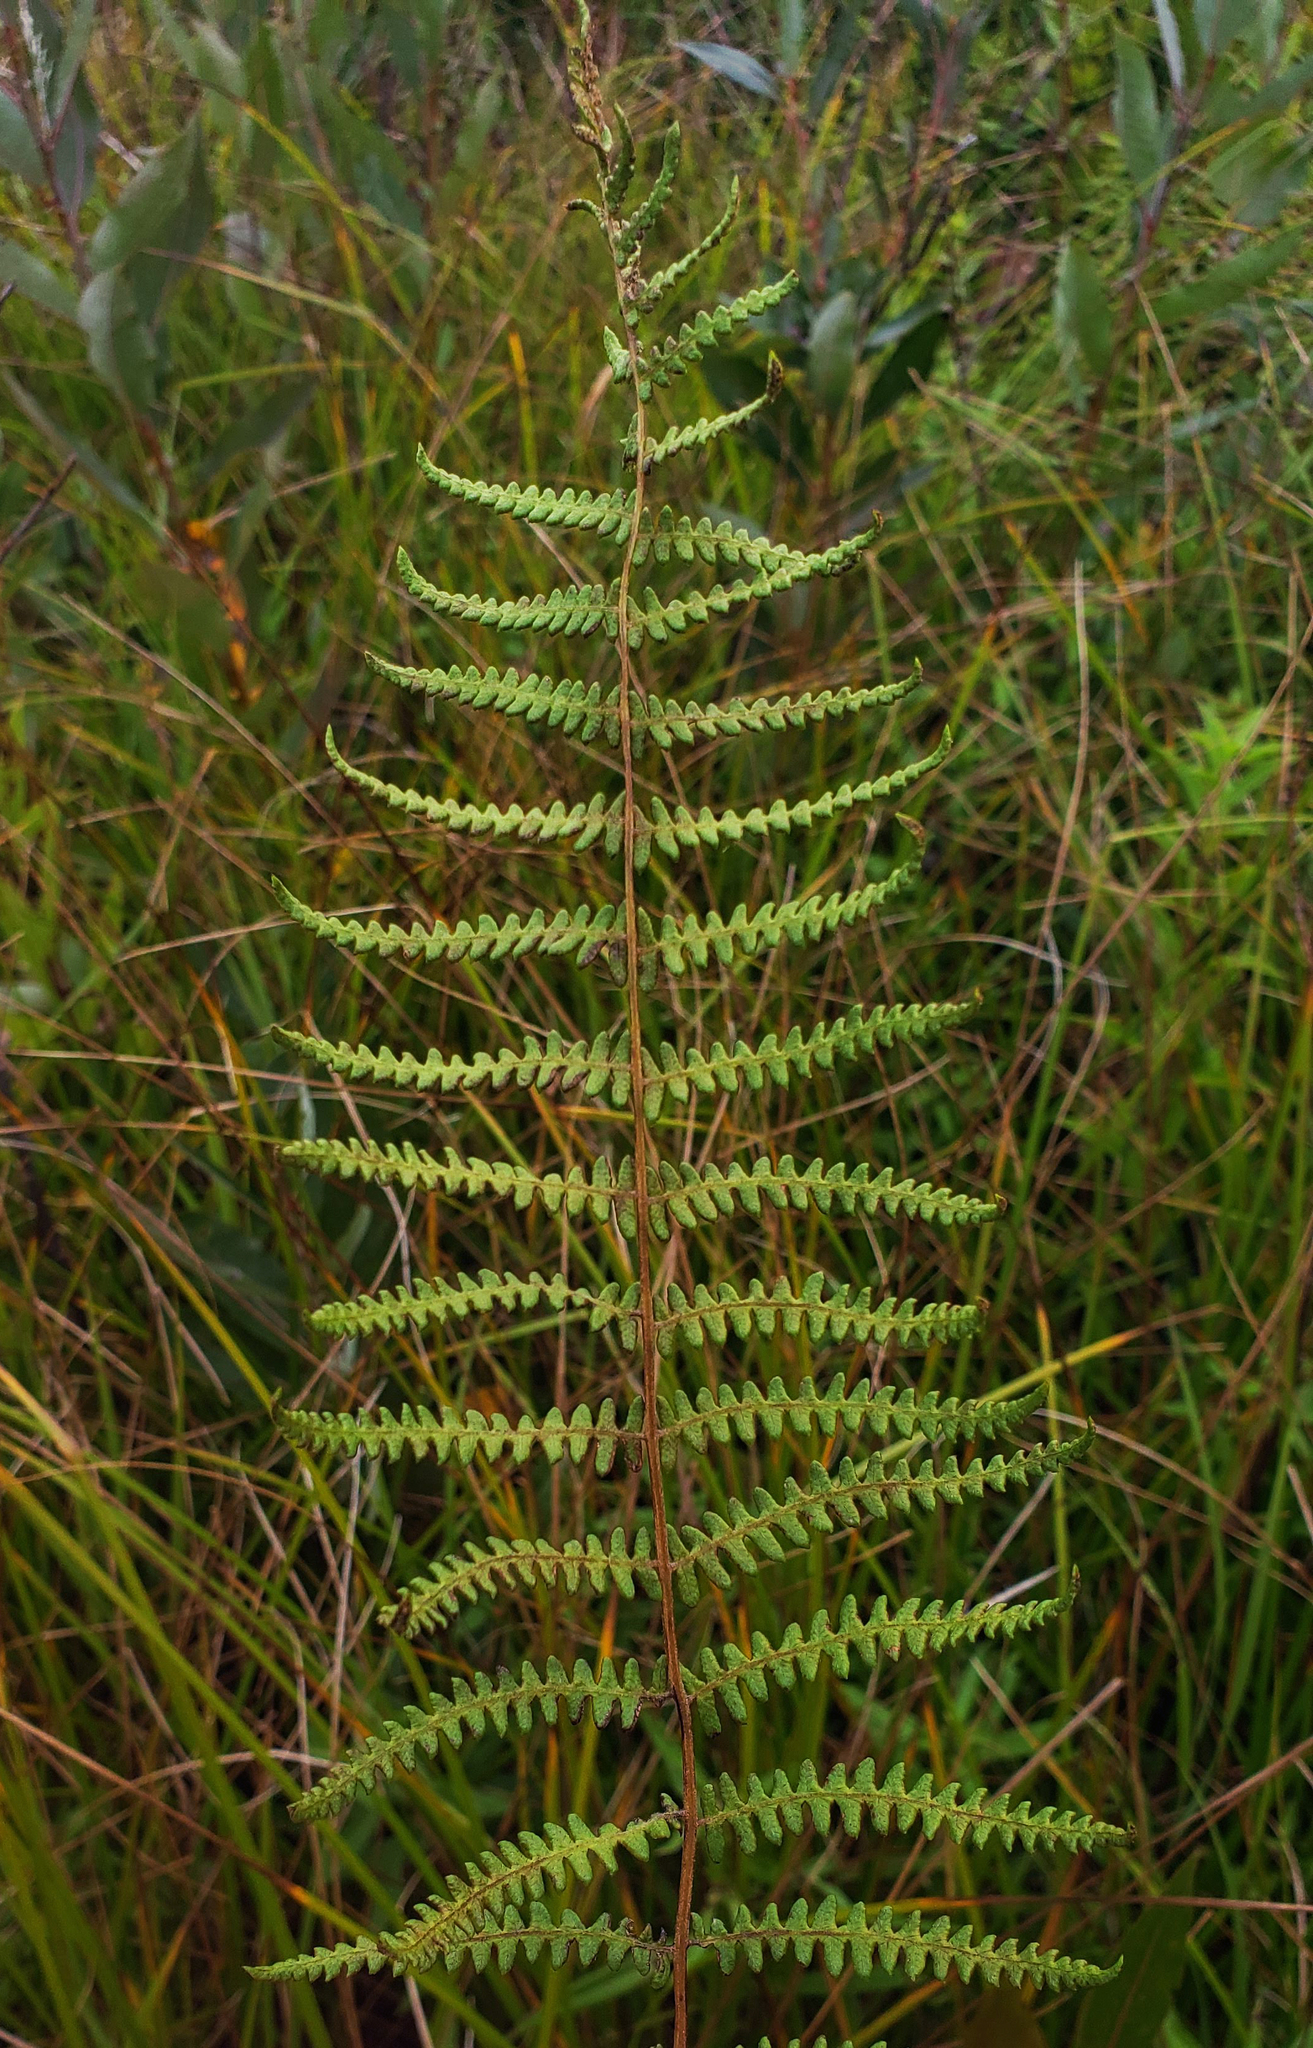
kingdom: Plantae
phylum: Tracheophyta
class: Polypodiopsida
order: Polypodiales
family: Thelypteridaceae
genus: Thelypteris
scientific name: Thelypteris palustris
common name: Marsh fern
